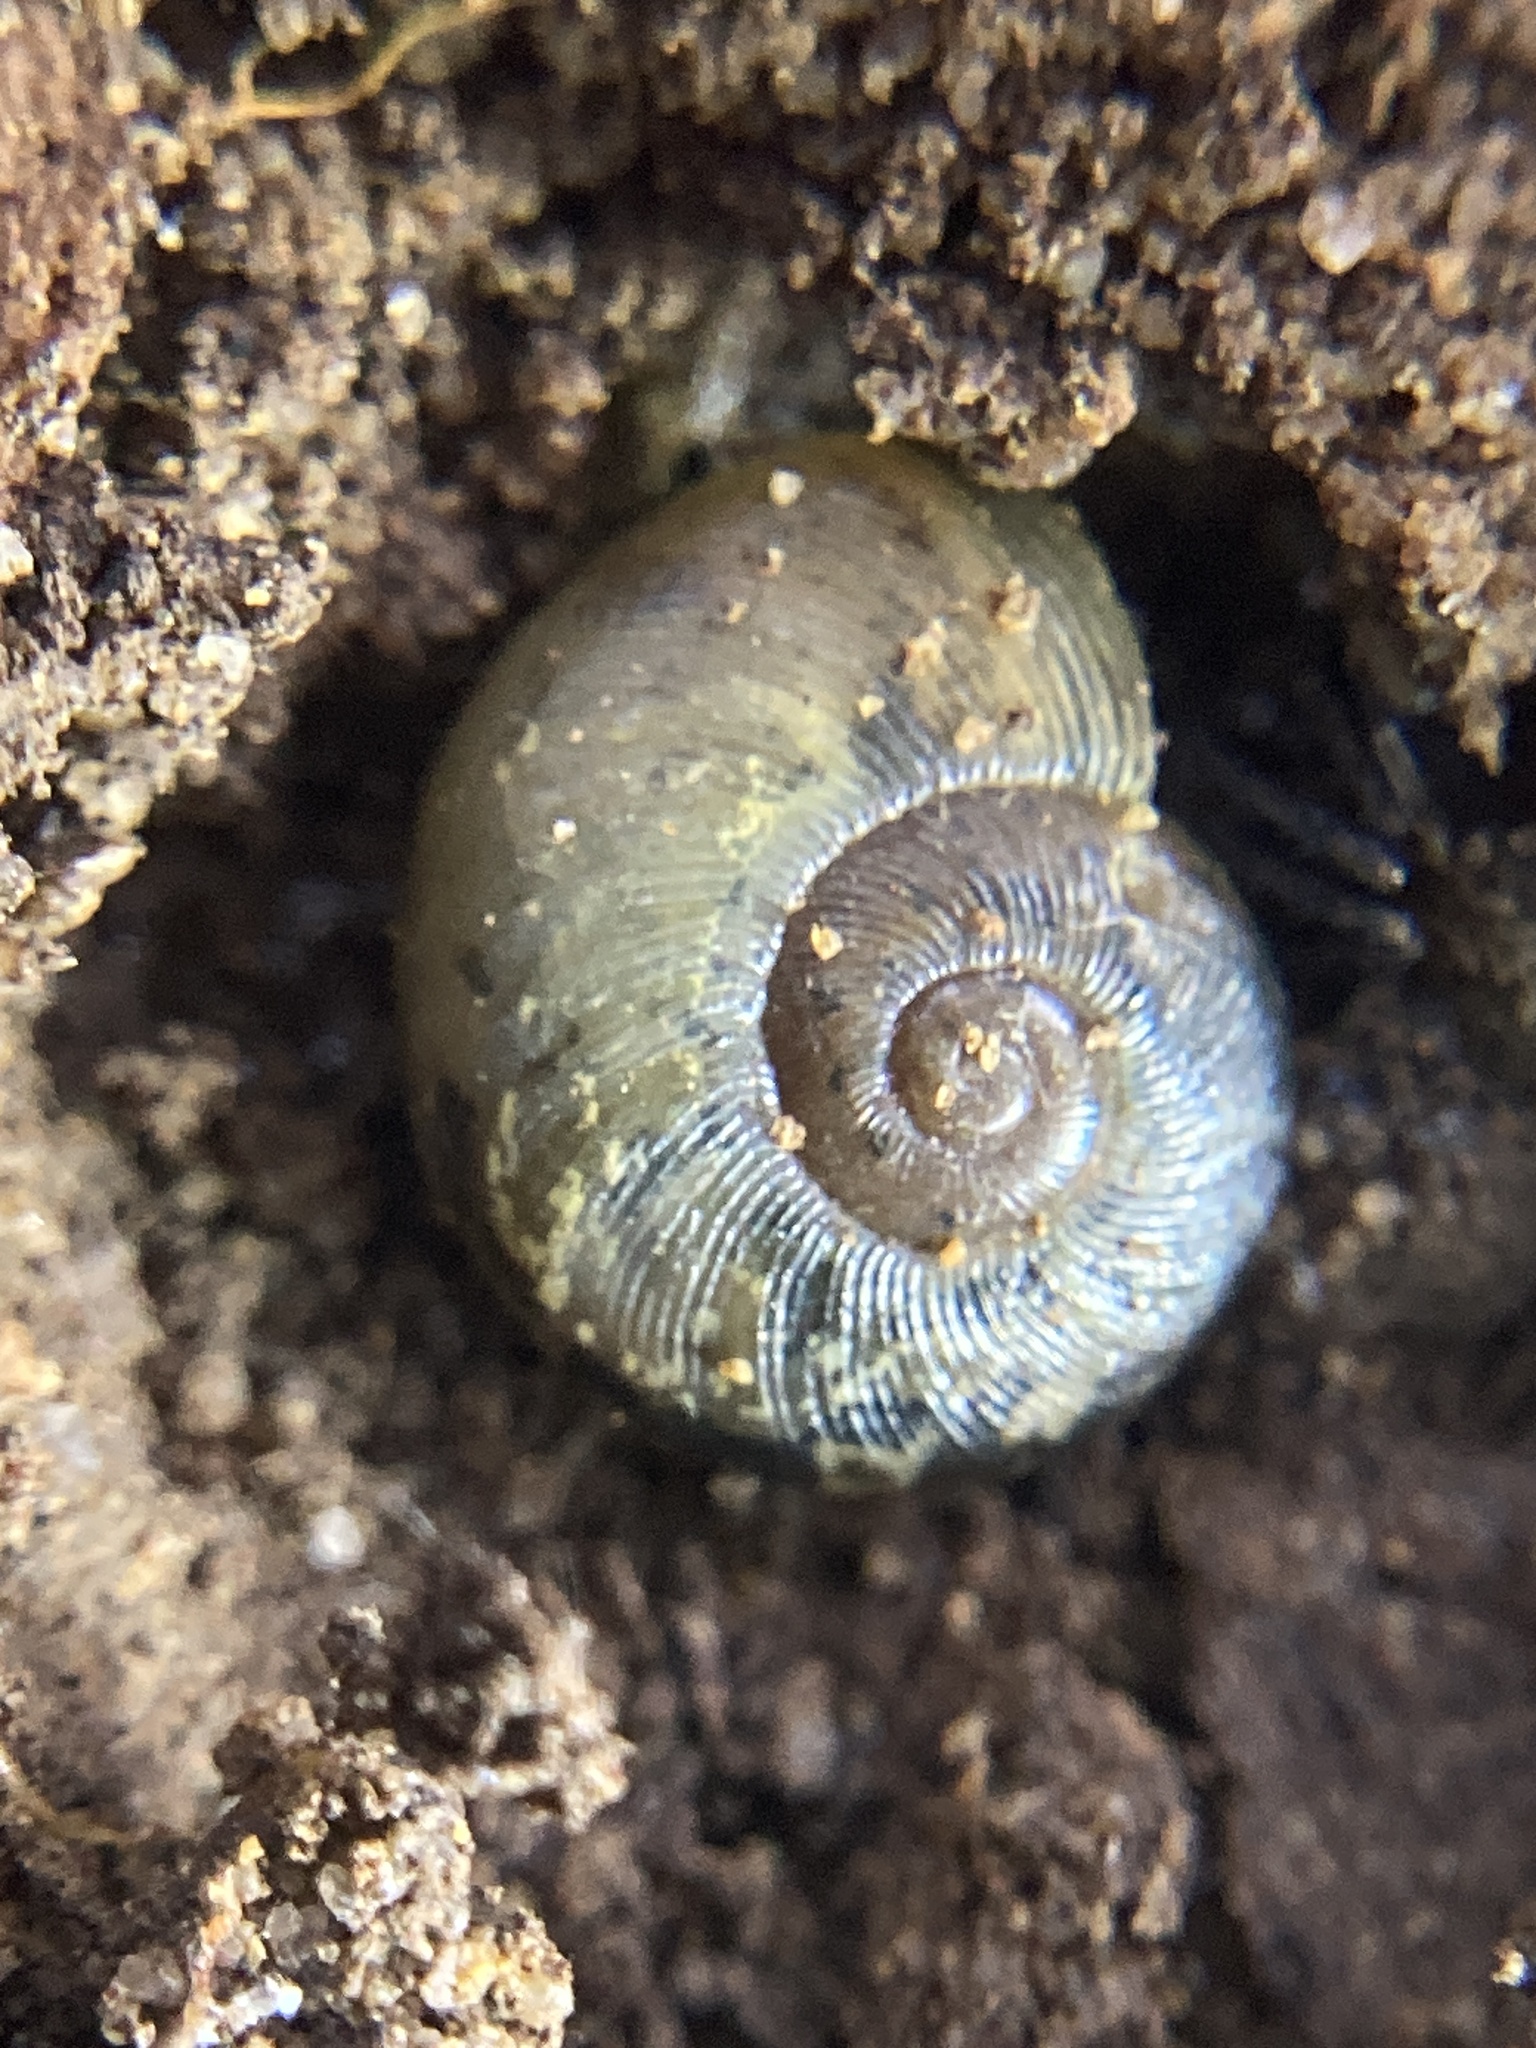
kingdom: Animalia
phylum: Mollusca
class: Gastropoda
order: Stylommatophora
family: Rhytididae
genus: Austrorhytida
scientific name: Austrorhytida capillacea
